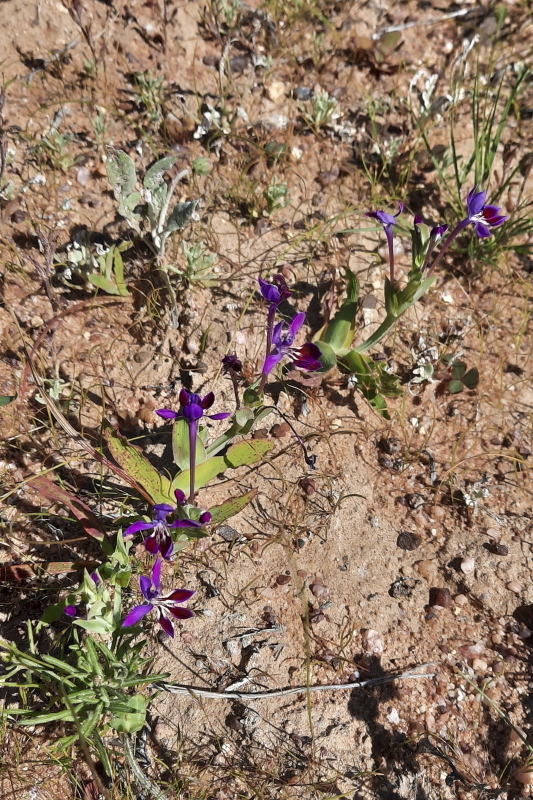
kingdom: Plantae
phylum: Tracheophyta
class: Liliopsida
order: Asparagales
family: Iridaceae
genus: Lapeirousia
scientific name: Lapeirousia jacquinii
